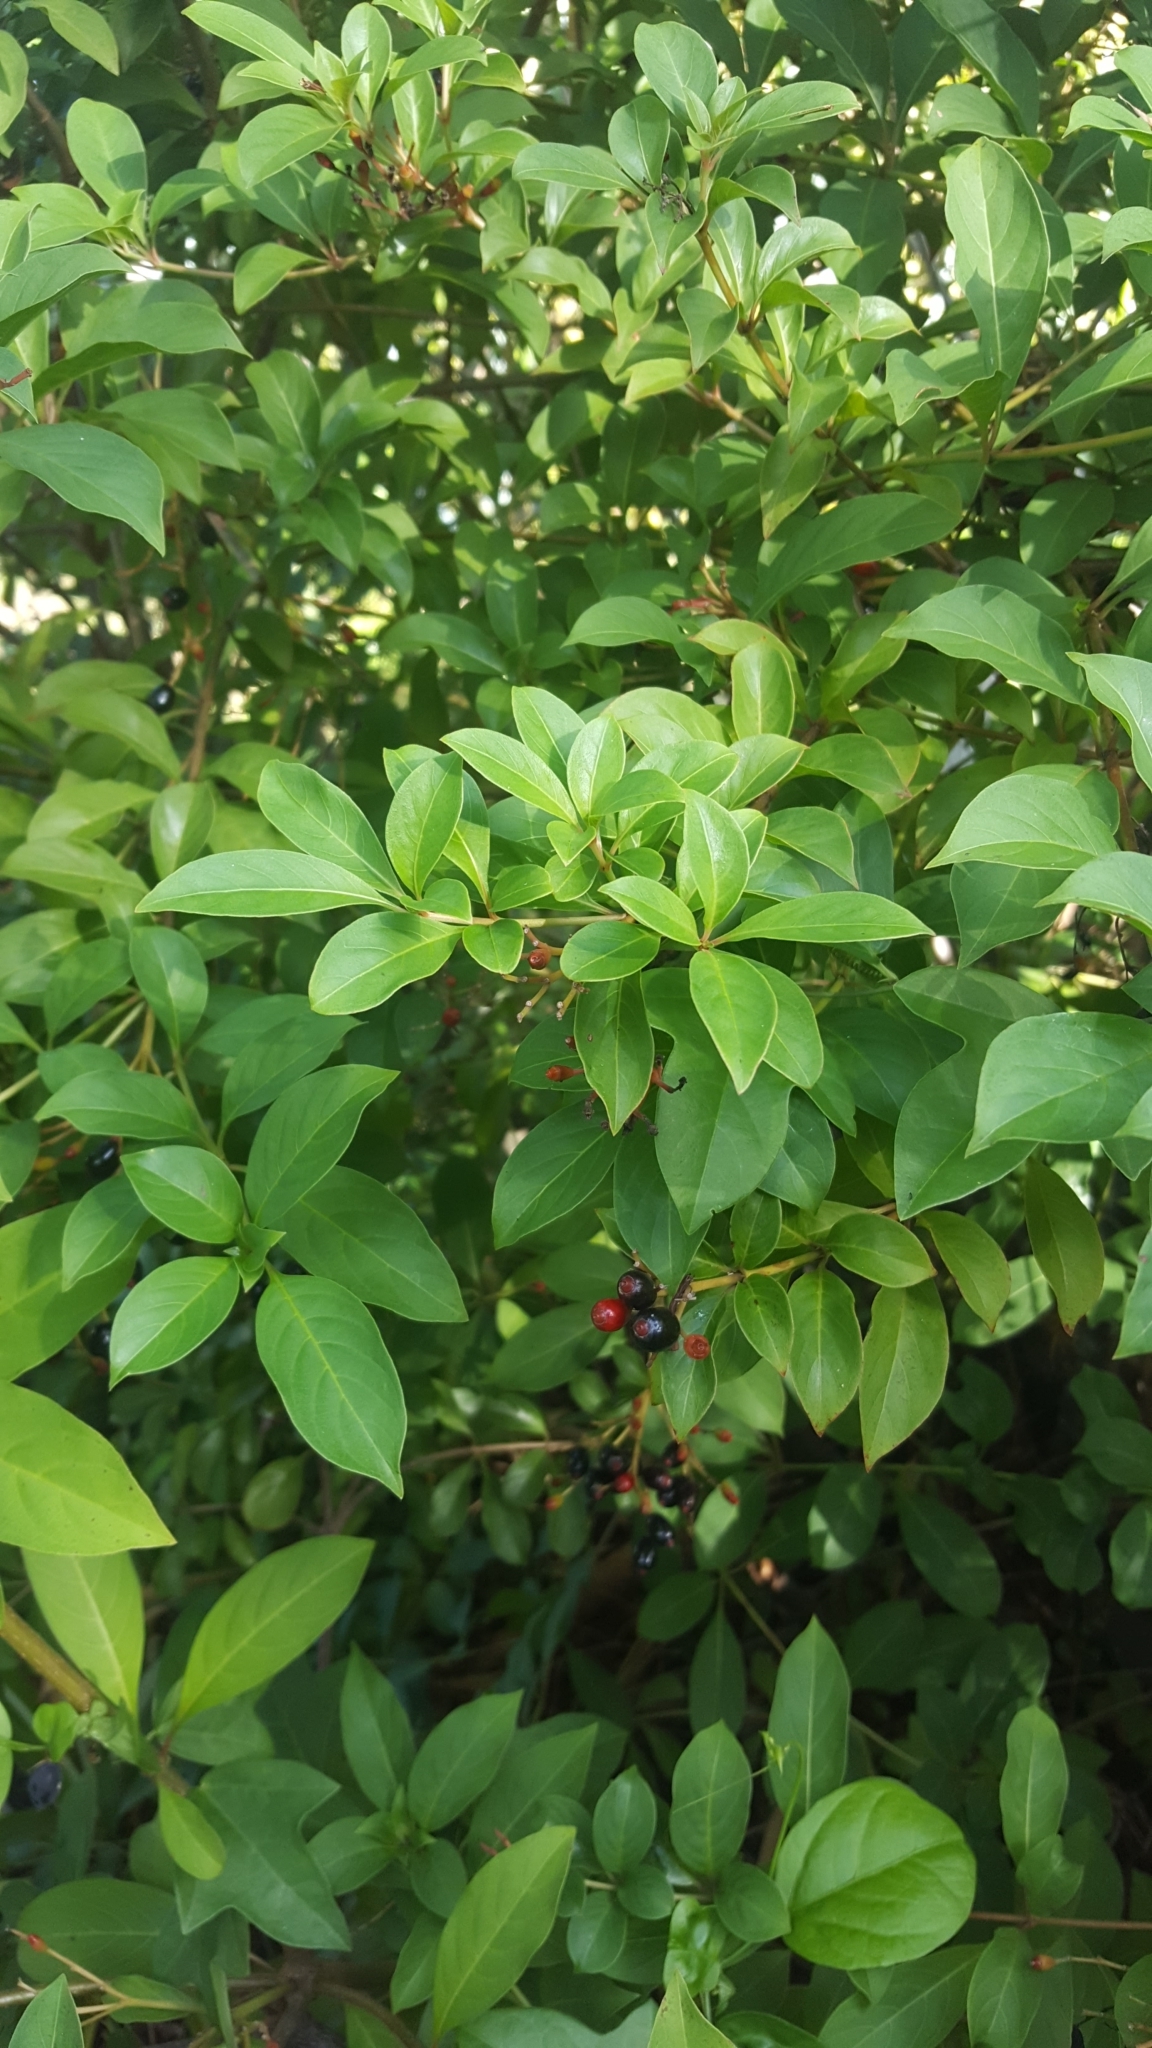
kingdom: Plantae
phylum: Tracheophyta
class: Magnoliopsida
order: Gentianales
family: Rubiaceae
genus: Hamelia
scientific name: Hamelia patens
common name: Redhead
